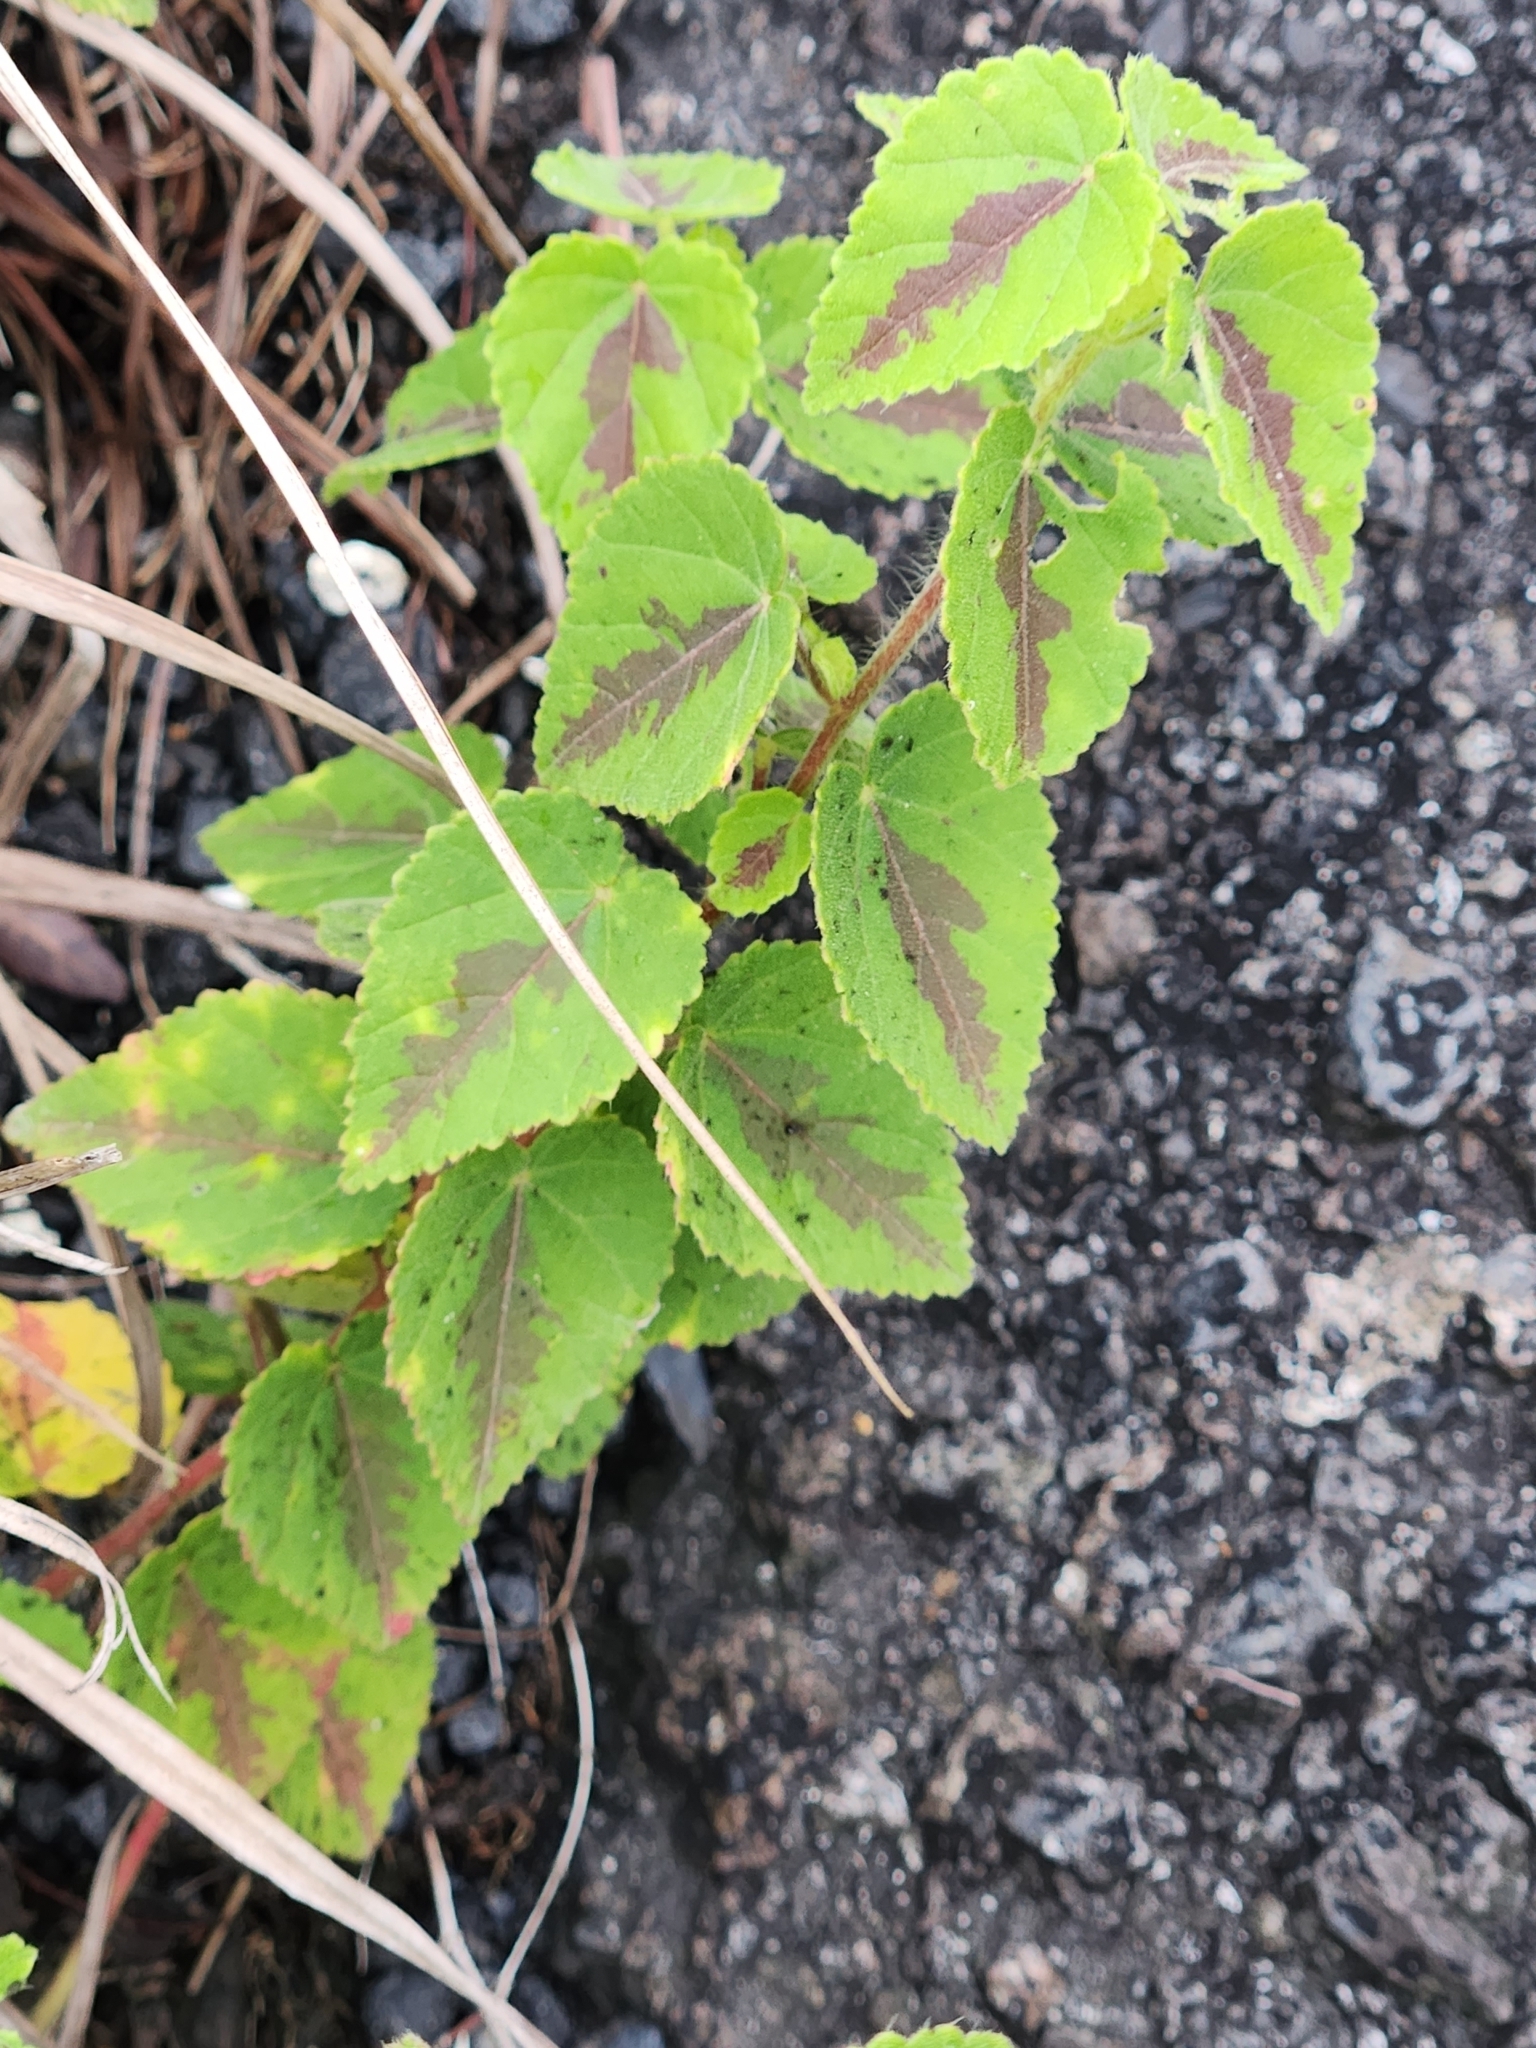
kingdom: Plantae
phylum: Tracheophyta
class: Magnoliopsida
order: Lamiales
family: Lamiaceae
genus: Coleus
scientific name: Coleus scutellarioides
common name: Coleus
